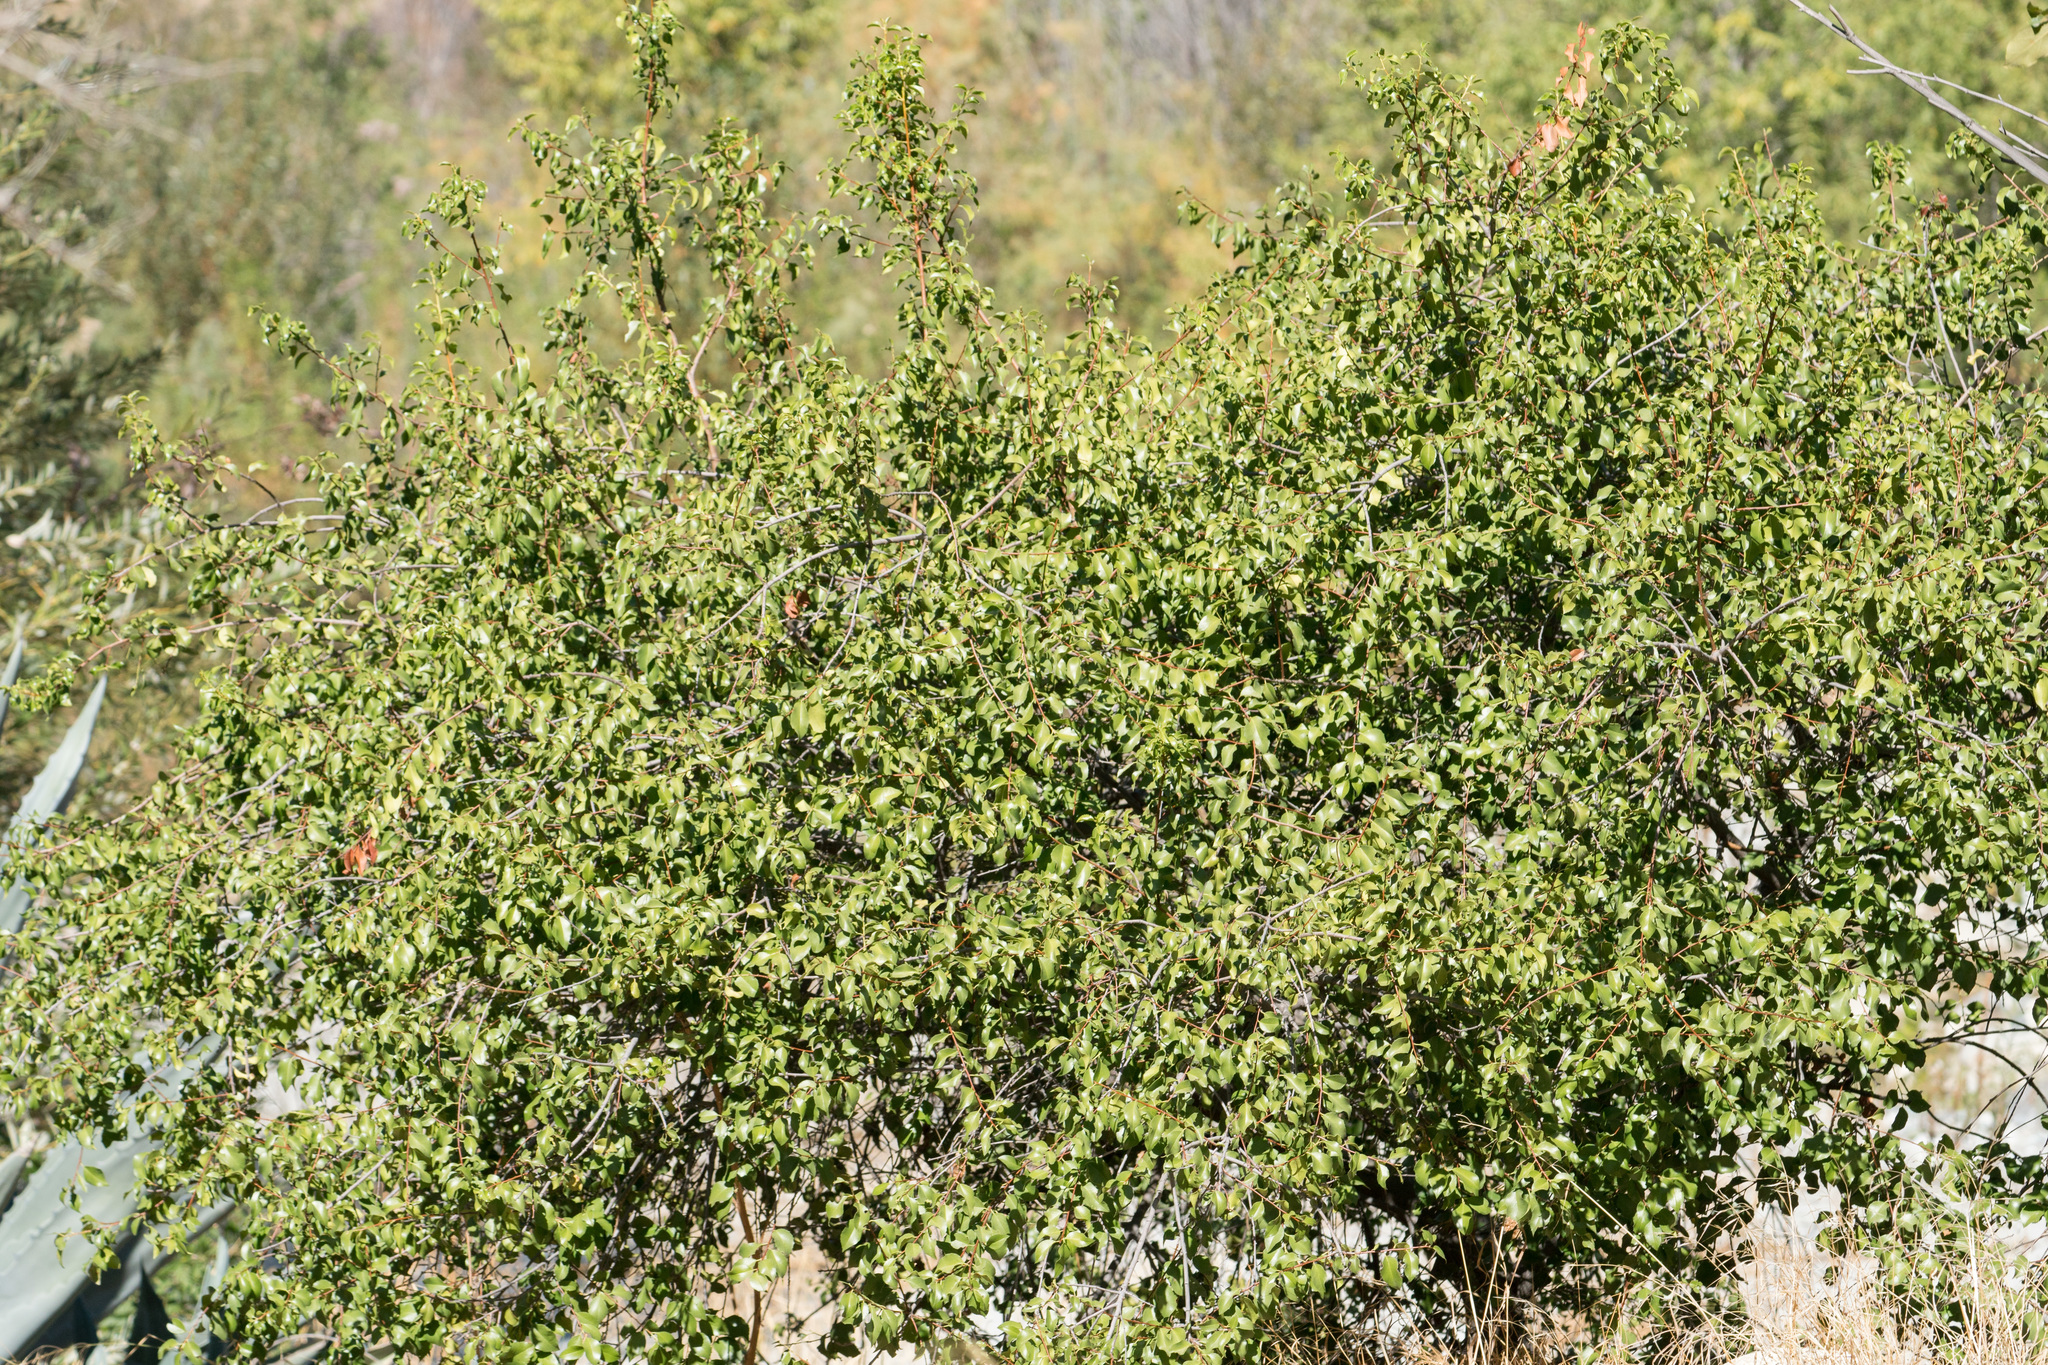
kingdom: Plantae
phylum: Tracheophyta
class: Magnoliopsida
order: Rosales
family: Rosaceae
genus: Prunus
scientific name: Prunus ilicifolia
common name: Hollyleaf cherry
